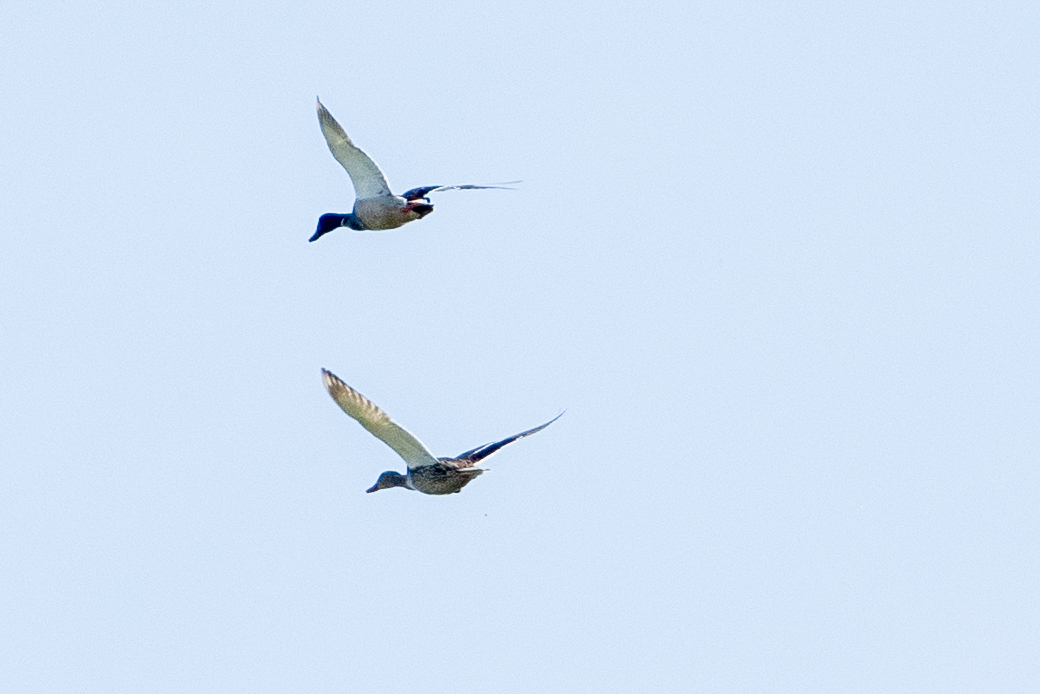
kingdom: Animalia
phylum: Chordata
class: Aves
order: Anseriformes
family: Anatidae
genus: Anas
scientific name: Anas platyrhynchos
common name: Mallard
